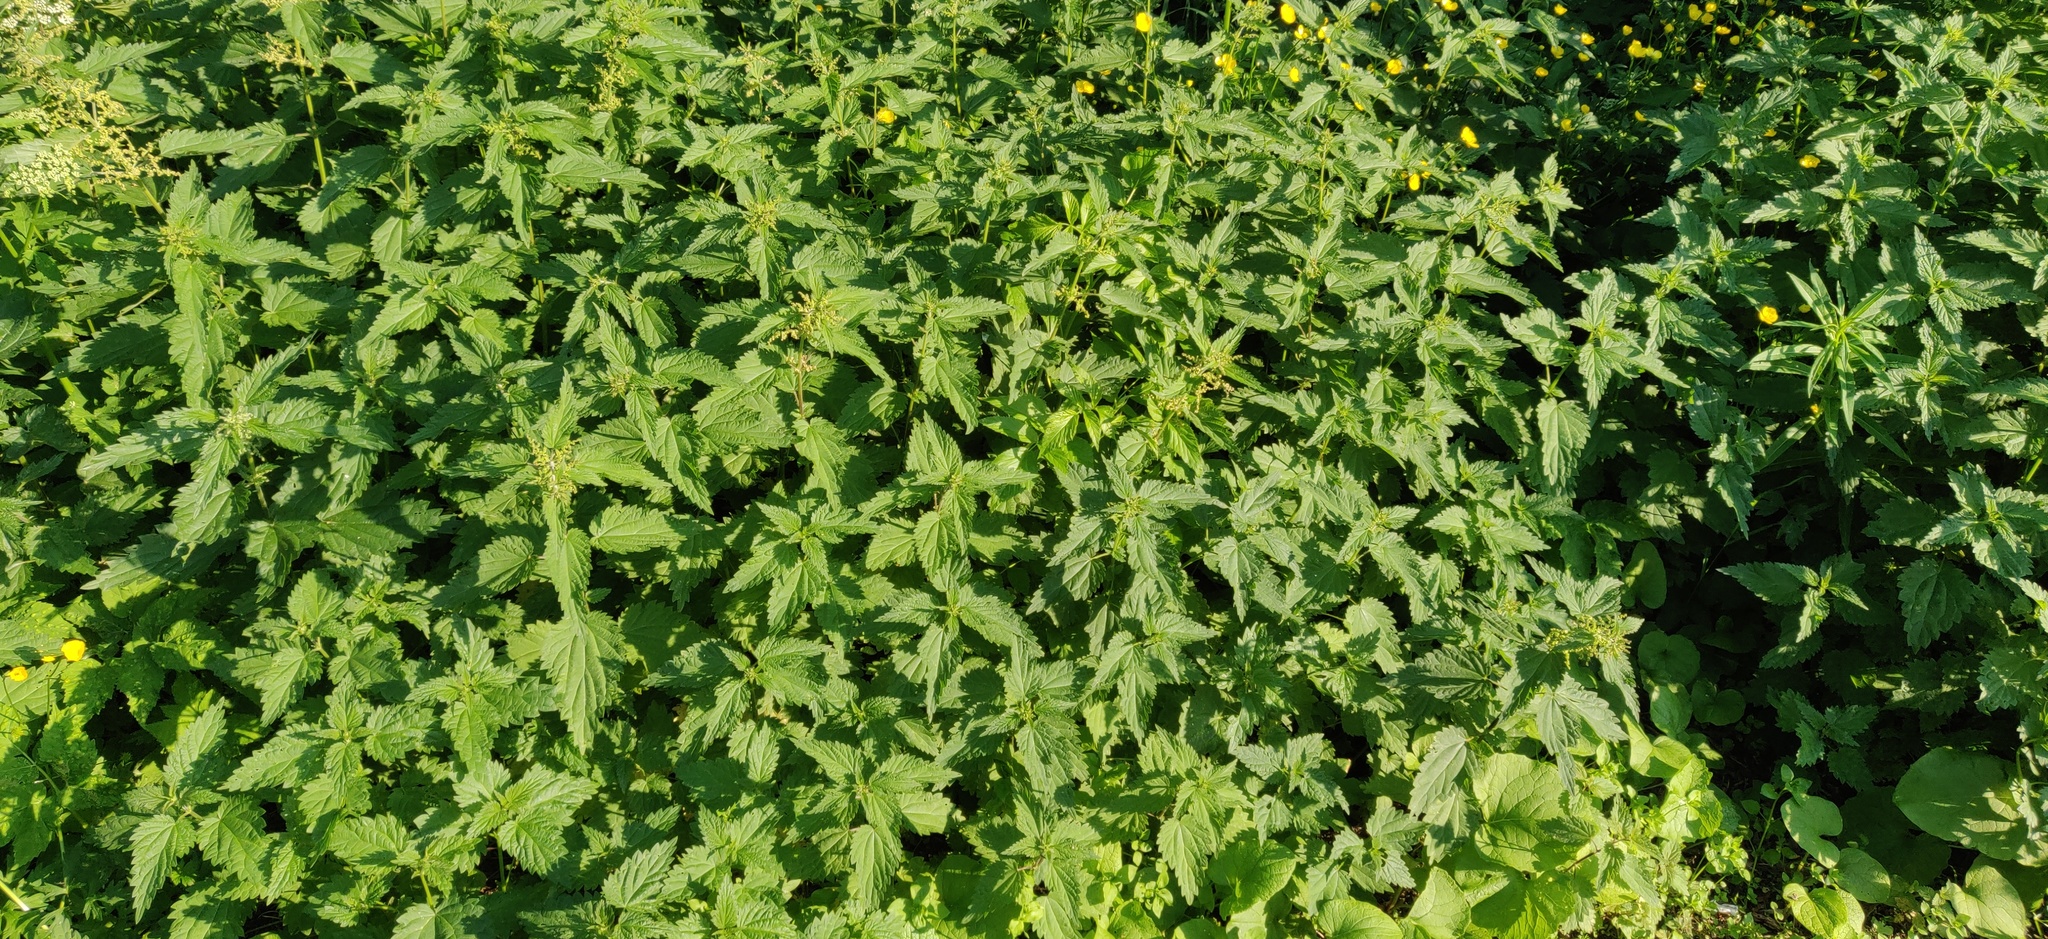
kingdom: Plantae
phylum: Tracheophyta
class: Magnoliopsida
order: Rosales
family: Urticaceae
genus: Urtica
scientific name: Urtica dioica
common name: Common nettle
